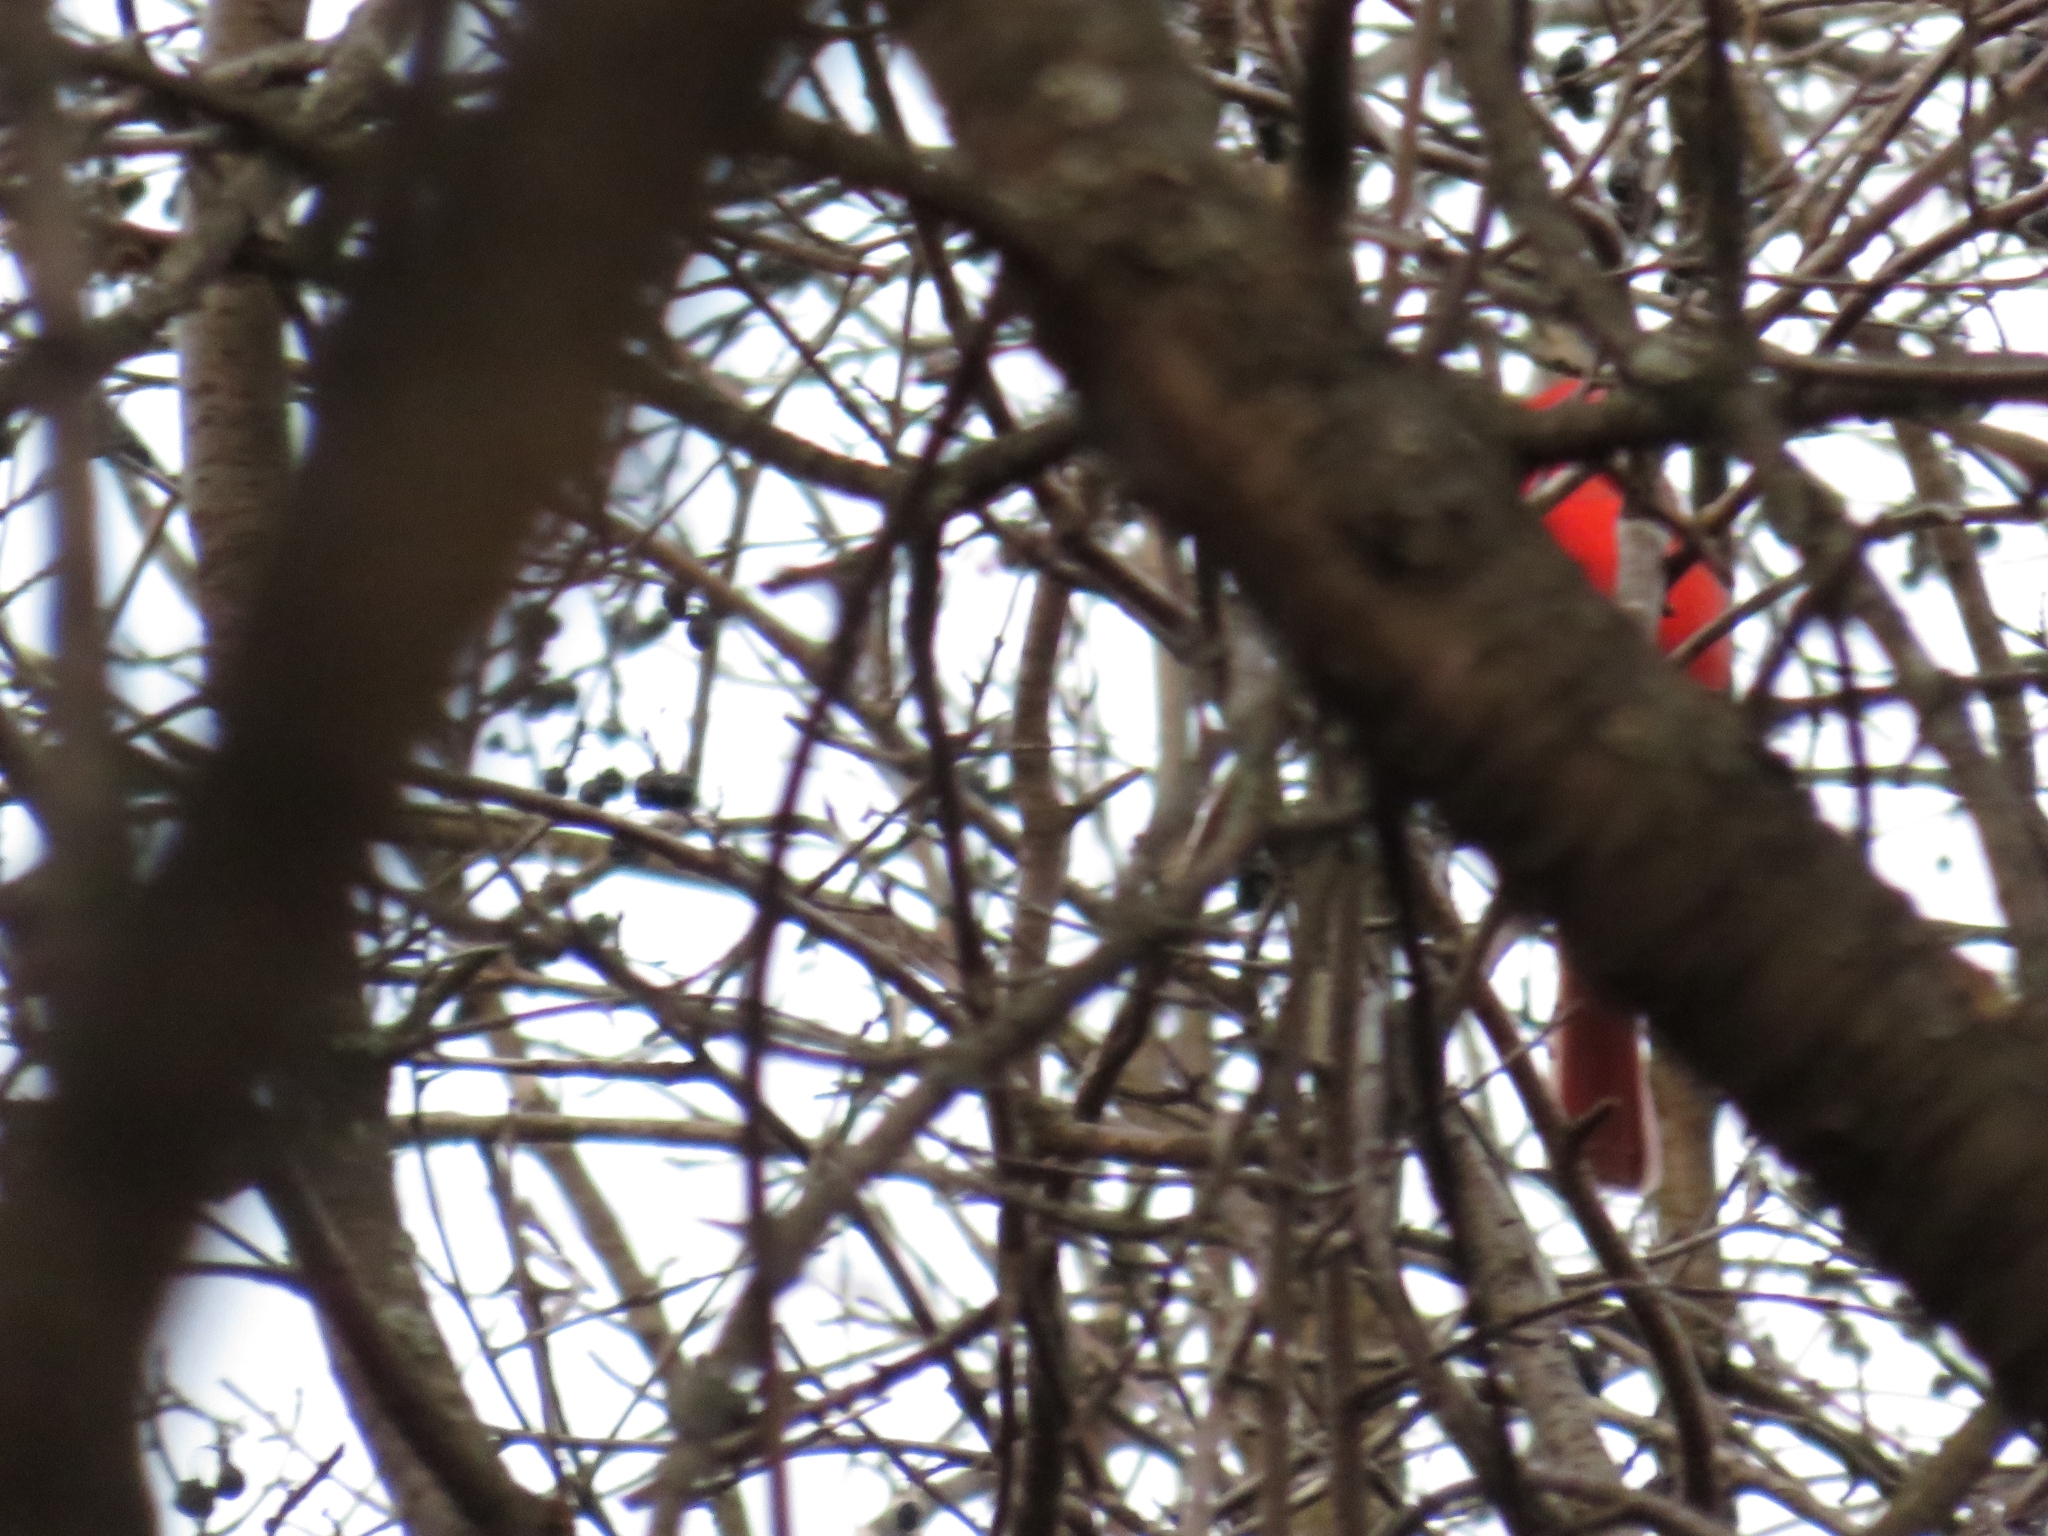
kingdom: Animalia
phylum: Chordata
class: Aves
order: Passeriformes
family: Cardinalidae
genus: Cardinalis
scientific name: Cardinalis cardinalis
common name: Northern cardinal
